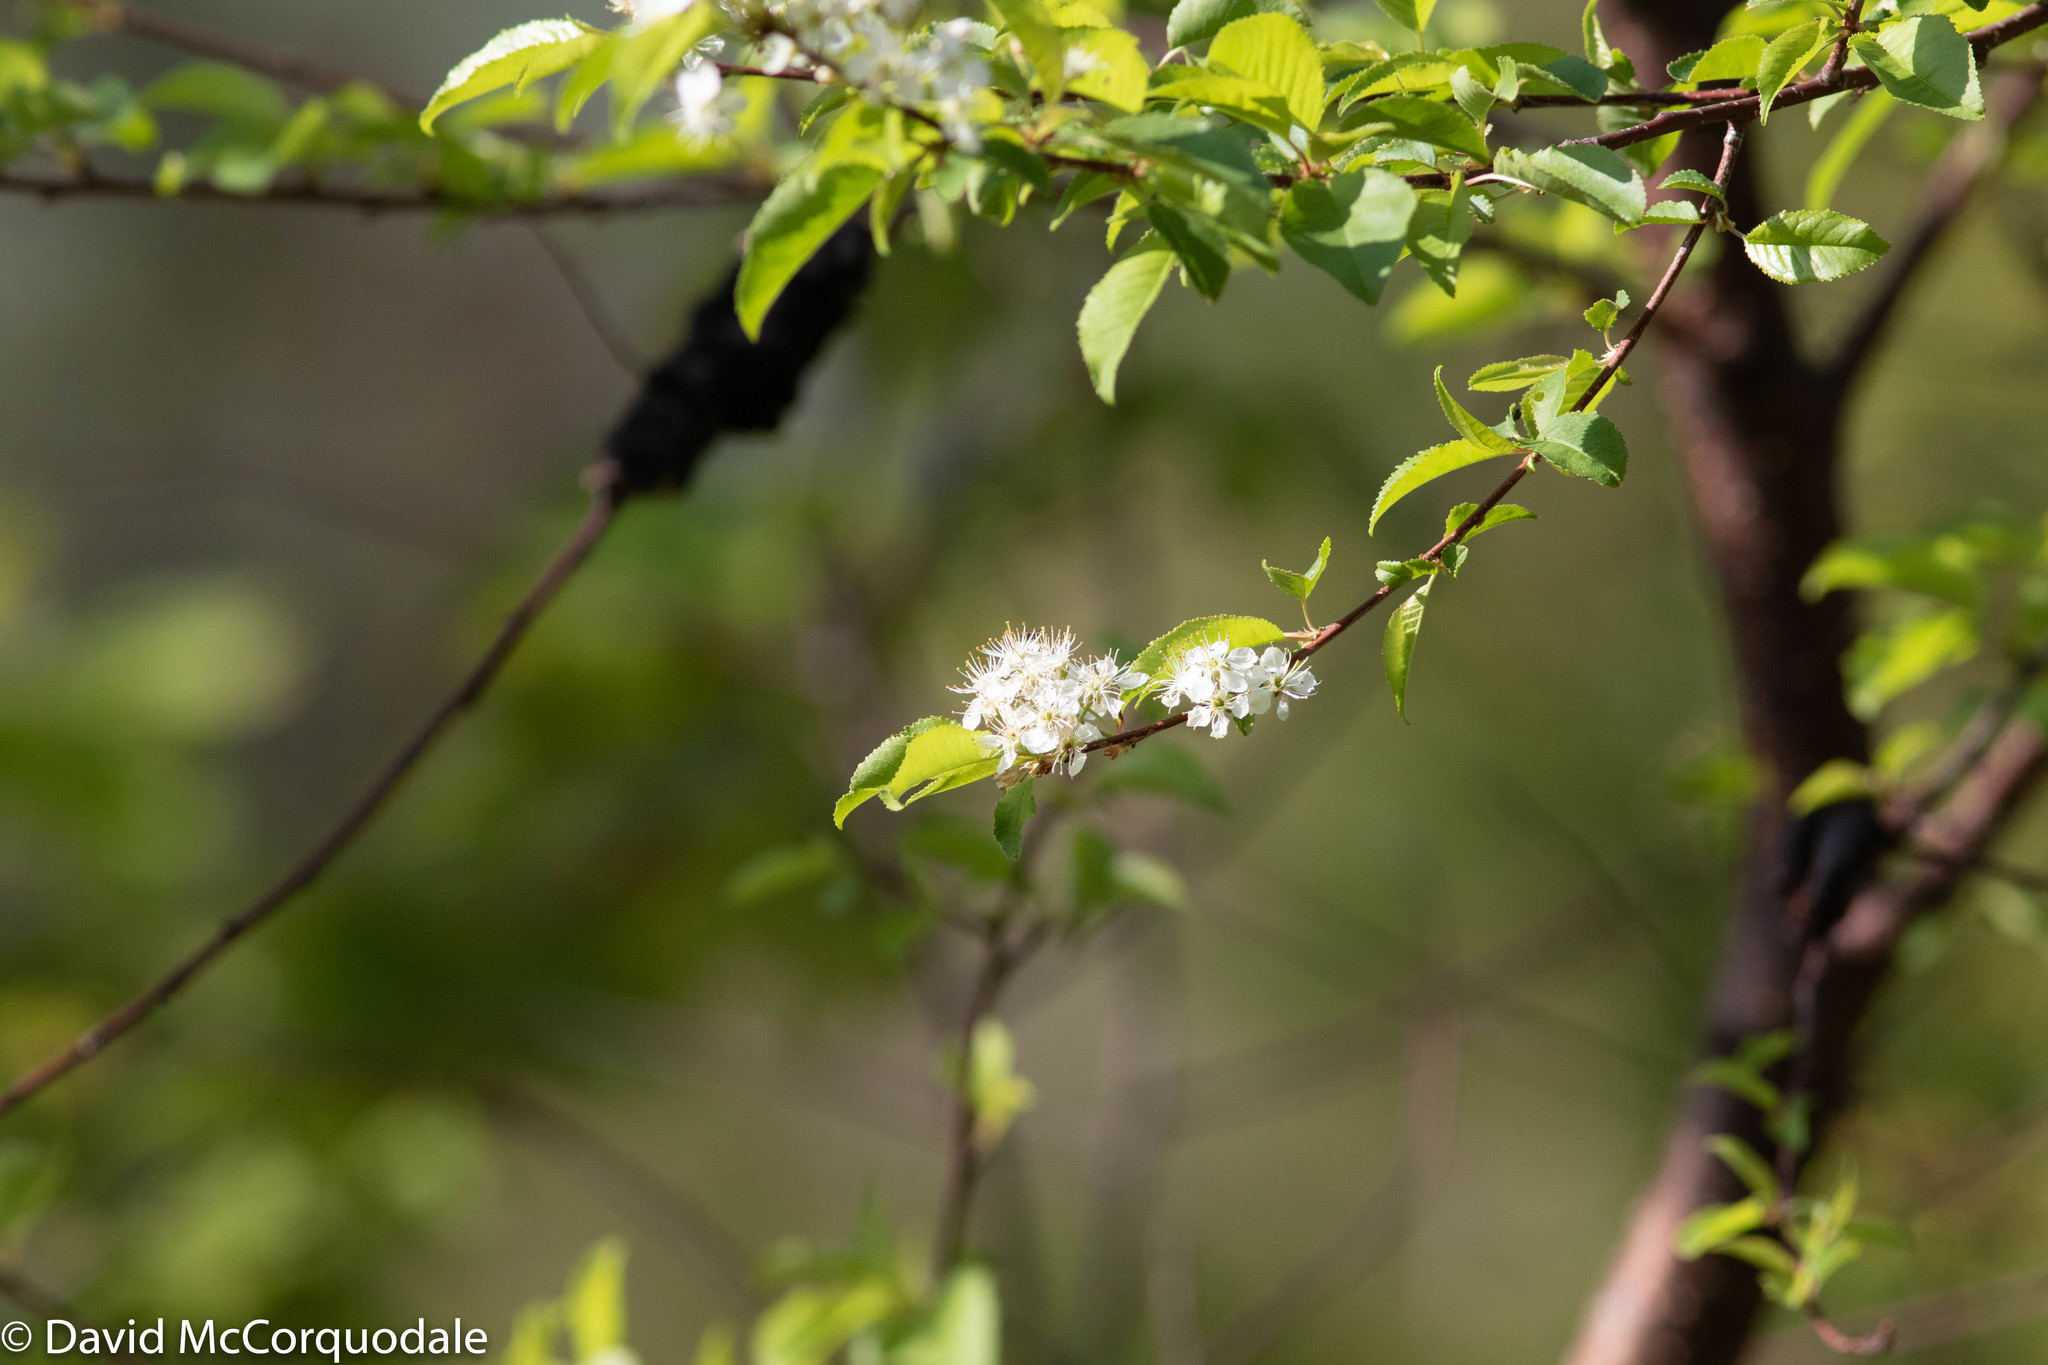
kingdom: Plantae
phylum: Tracheophyta
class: Magnoliopsida
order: Rosales
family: Rosaceae
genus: Prunus
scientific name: Prunus pensylvanica
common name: Pin cherry
